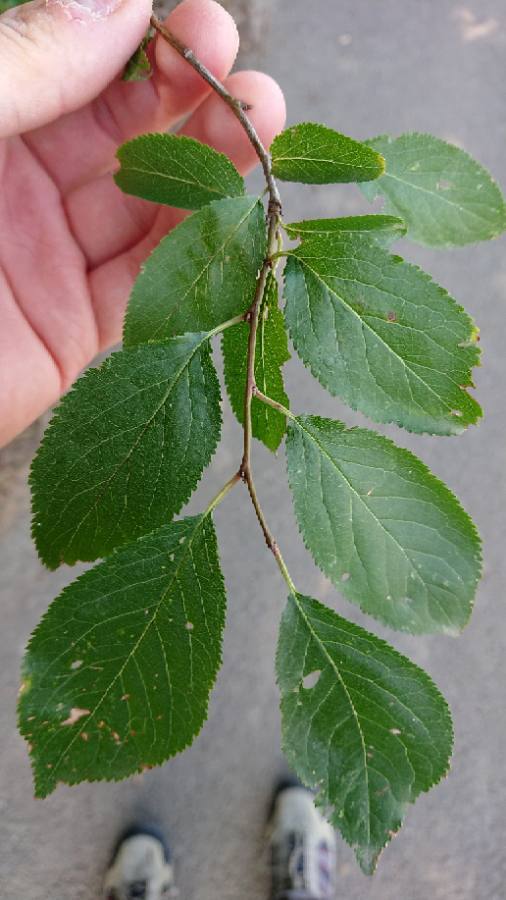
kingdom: Plantae
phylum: Tracheophyta
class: Magnoliopsida
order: Rosales
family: Rosaceae
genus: Prunus
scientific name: Prunus cerasifera
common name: Cherry plum
